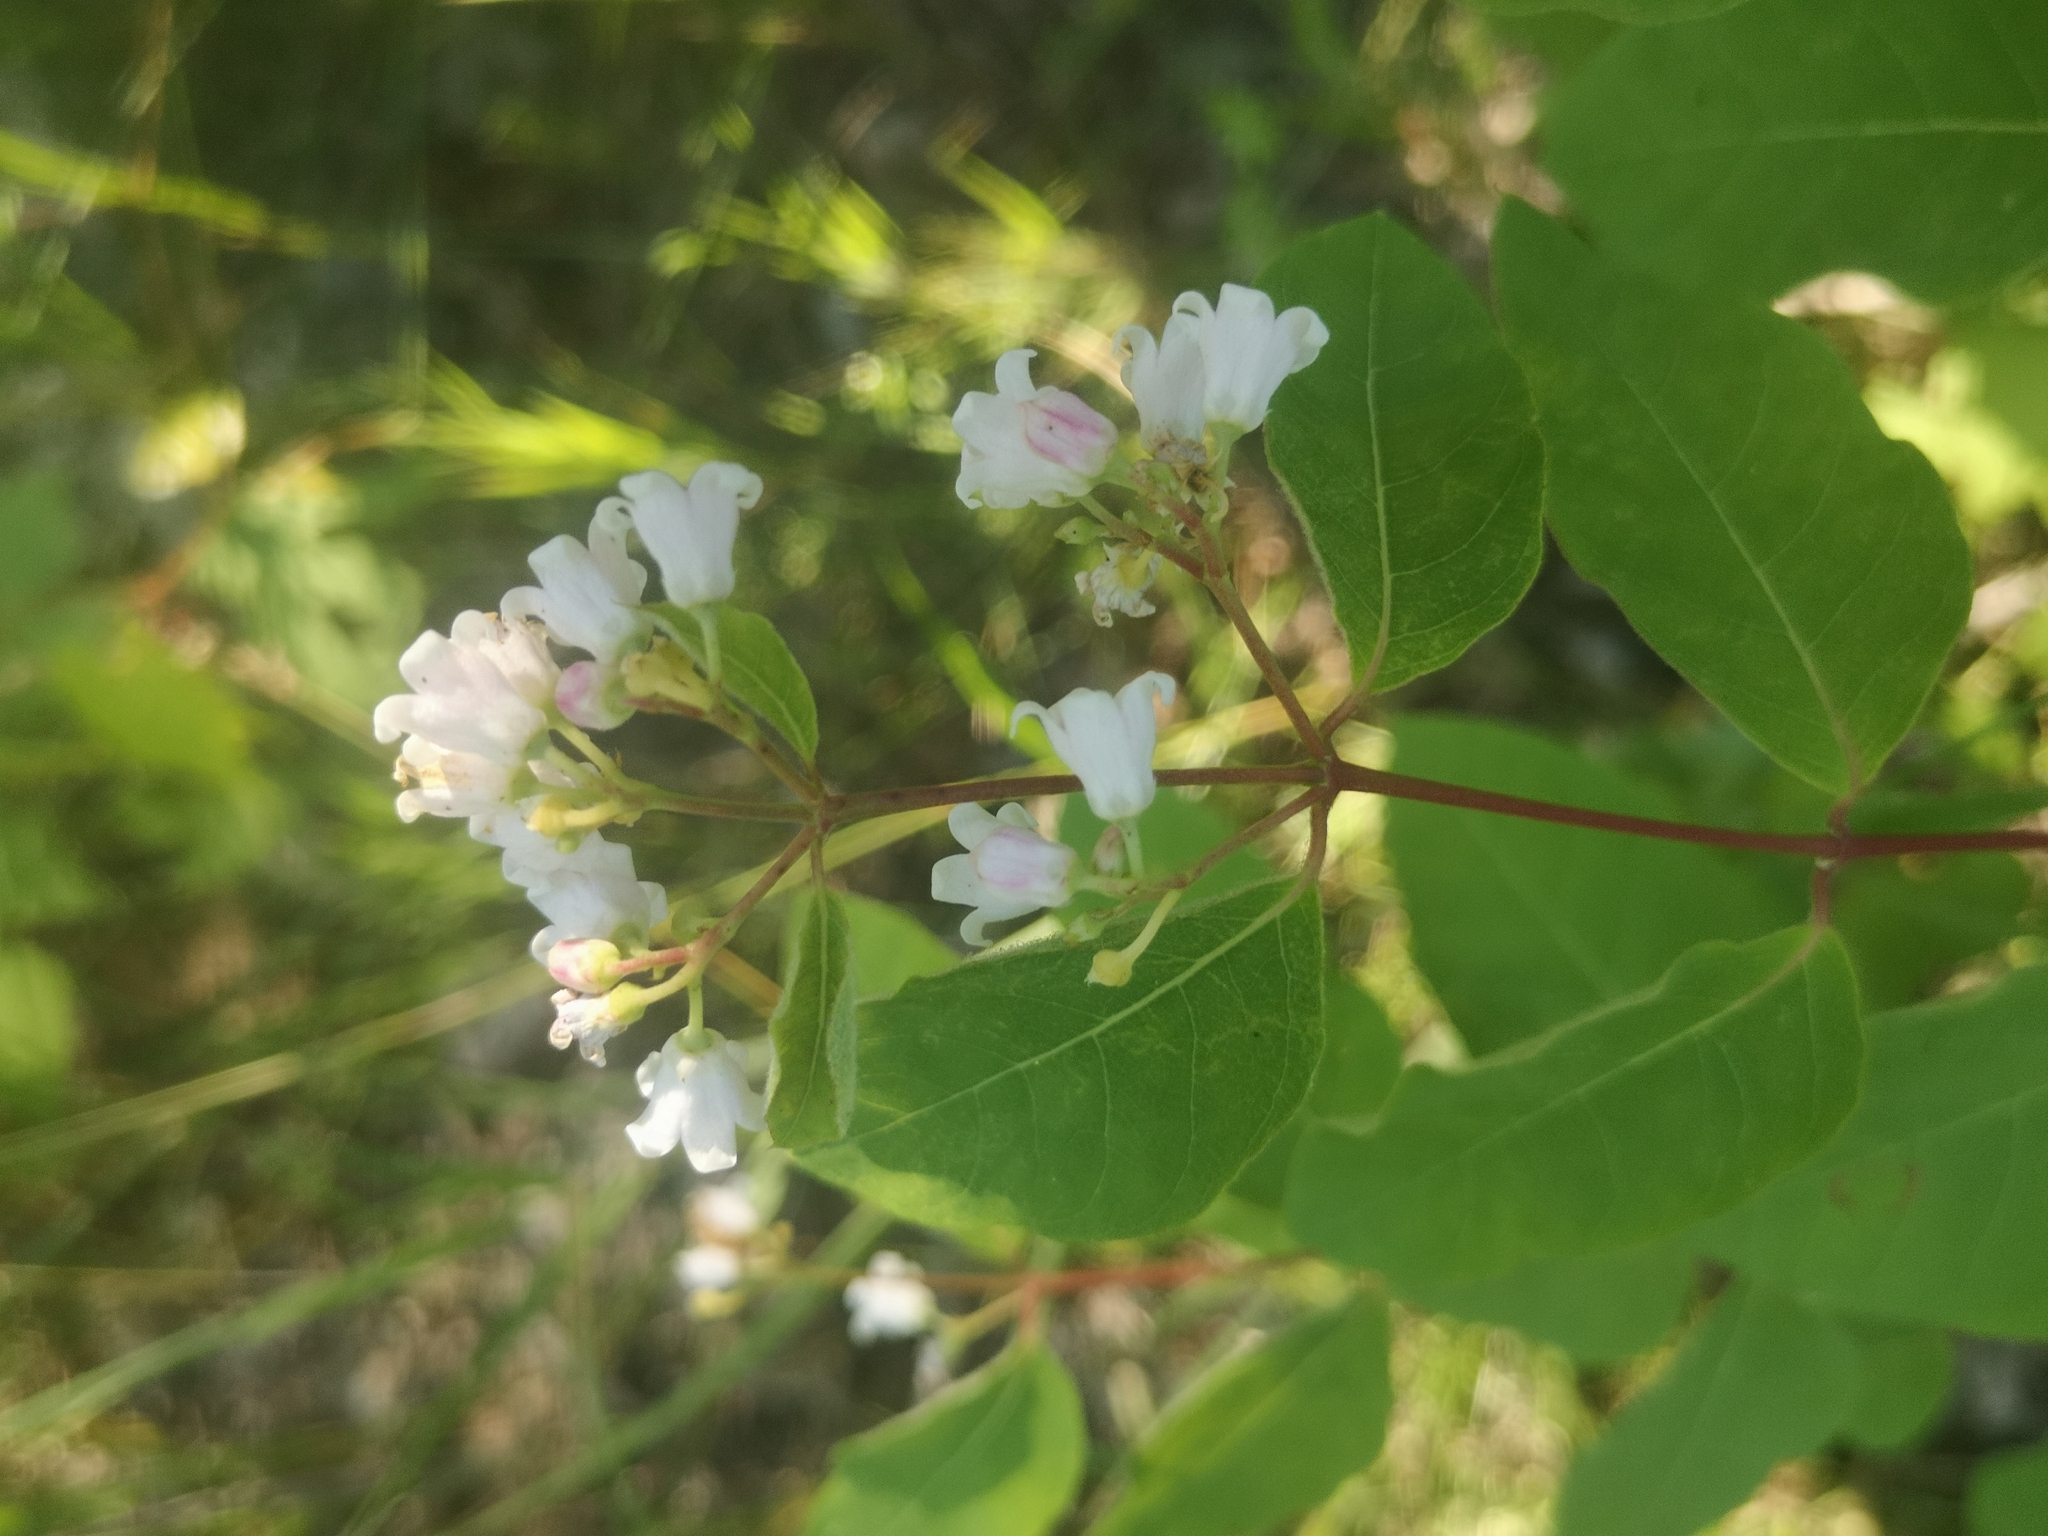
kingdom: Plantae
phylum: Tracheophyta
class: Magnoliopsida
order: Gentianales
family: Apocynaceae
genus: Apocynum
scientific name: Apocynum androsaemifolium
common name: Spreading dogbane
